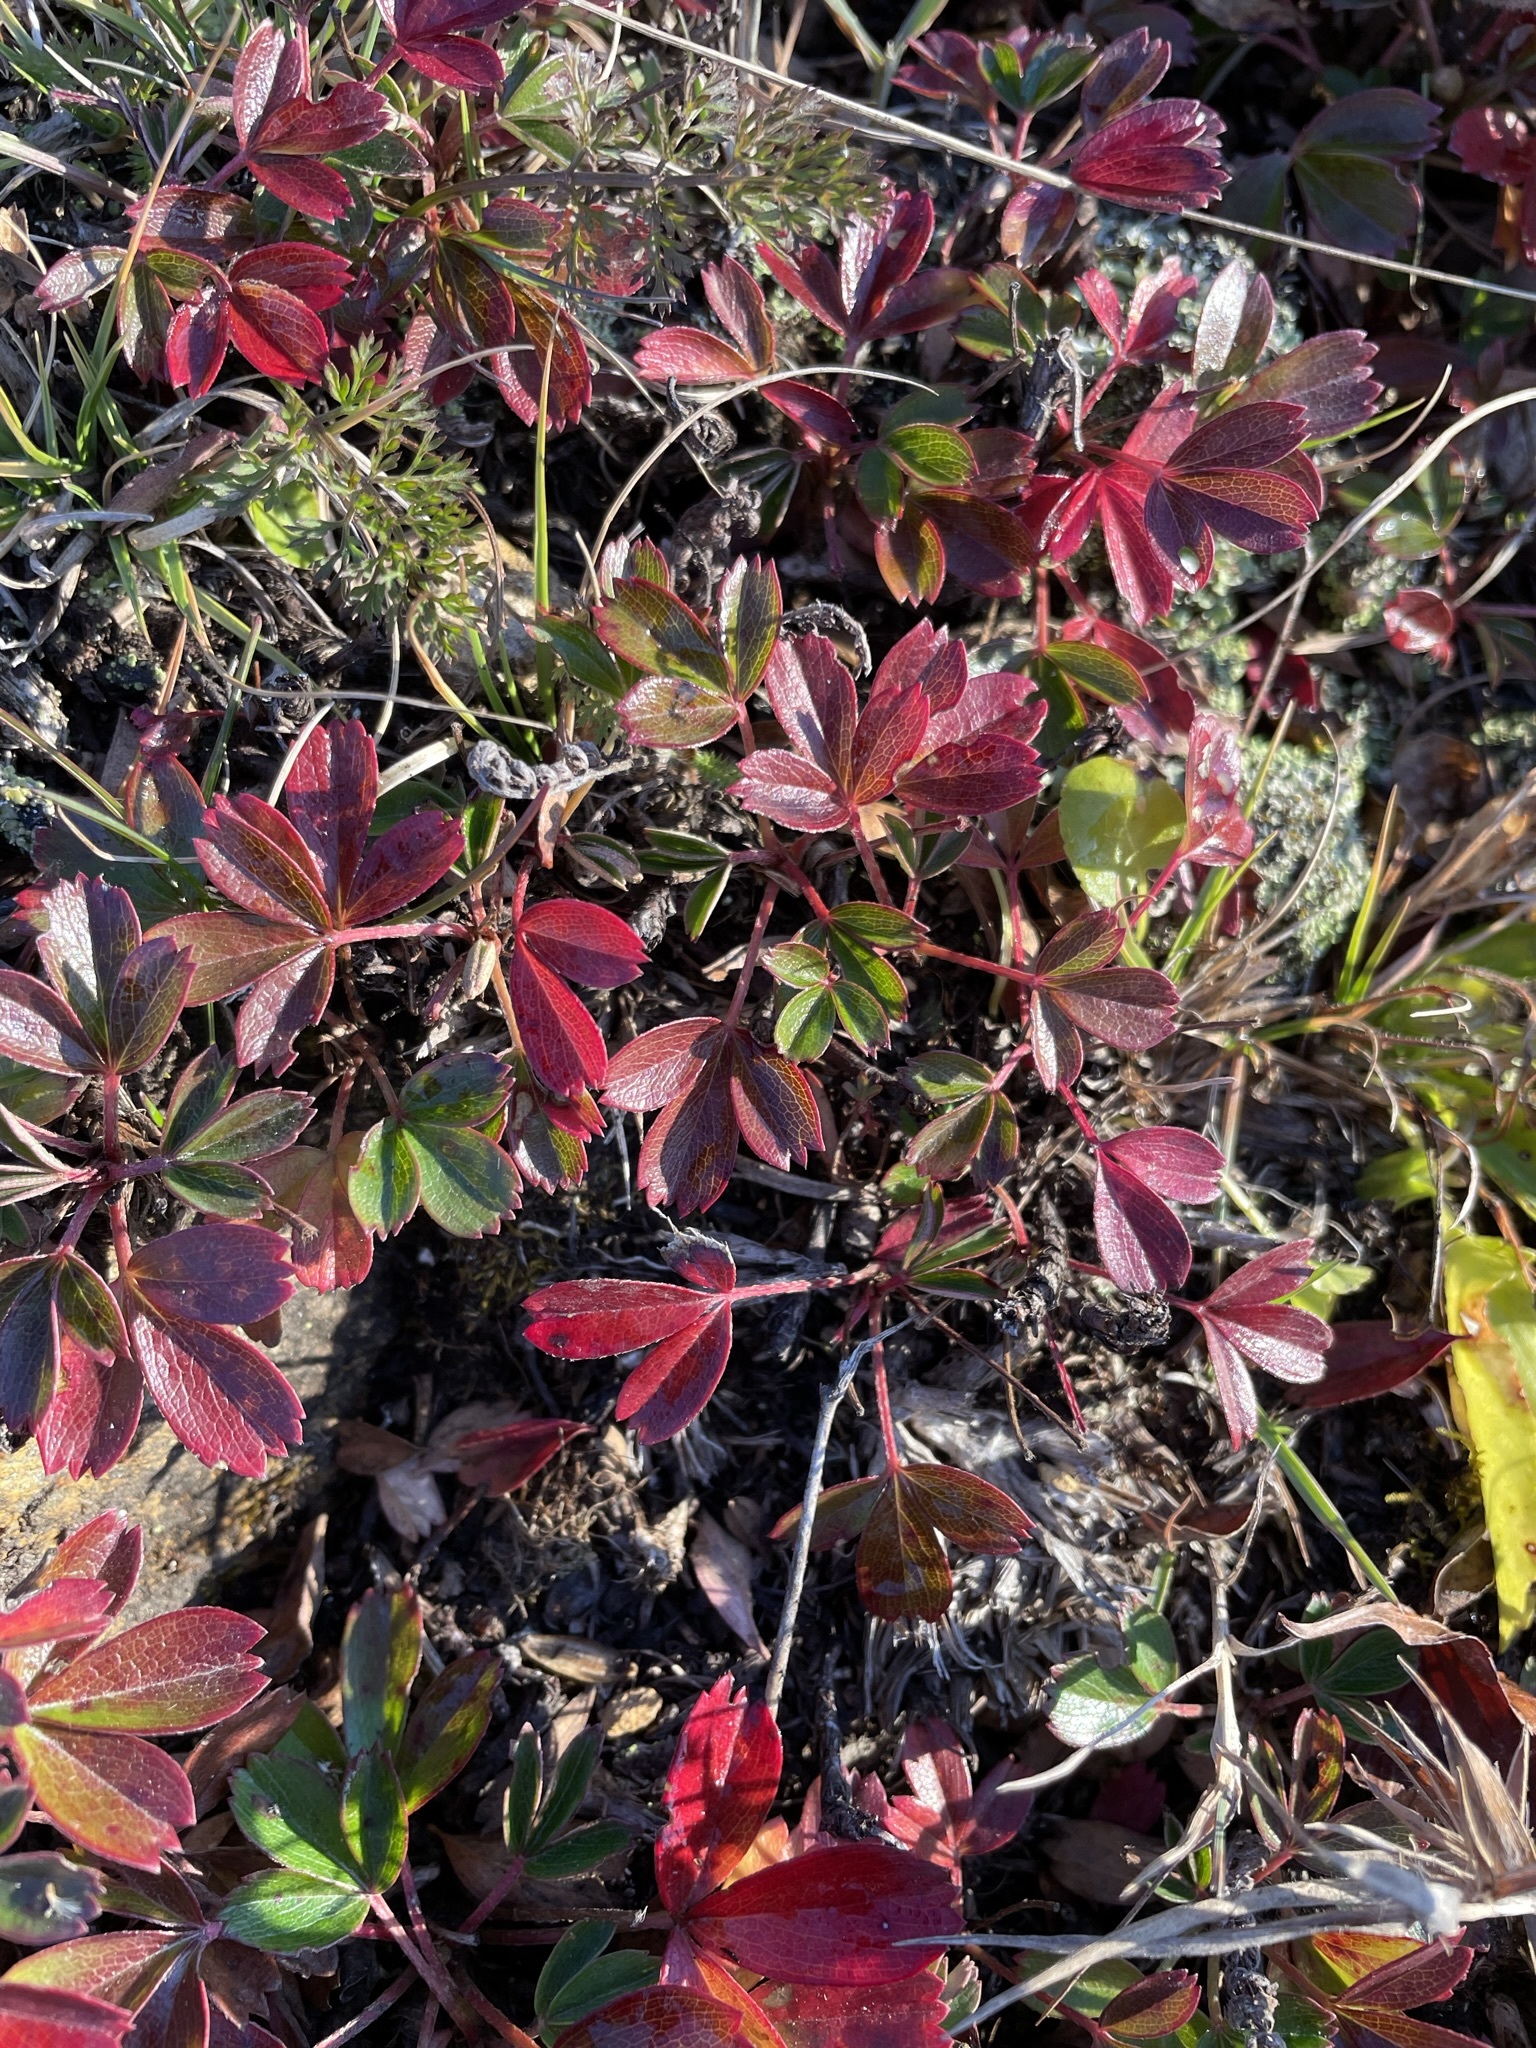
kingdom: Plantae
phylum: Tracheophyta
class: Magnoliopsida
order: Rosales
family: Rosaceae
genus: Sibbaldia
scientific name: Sibbaldia tridentata
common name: Three-toothed cinquefoil
